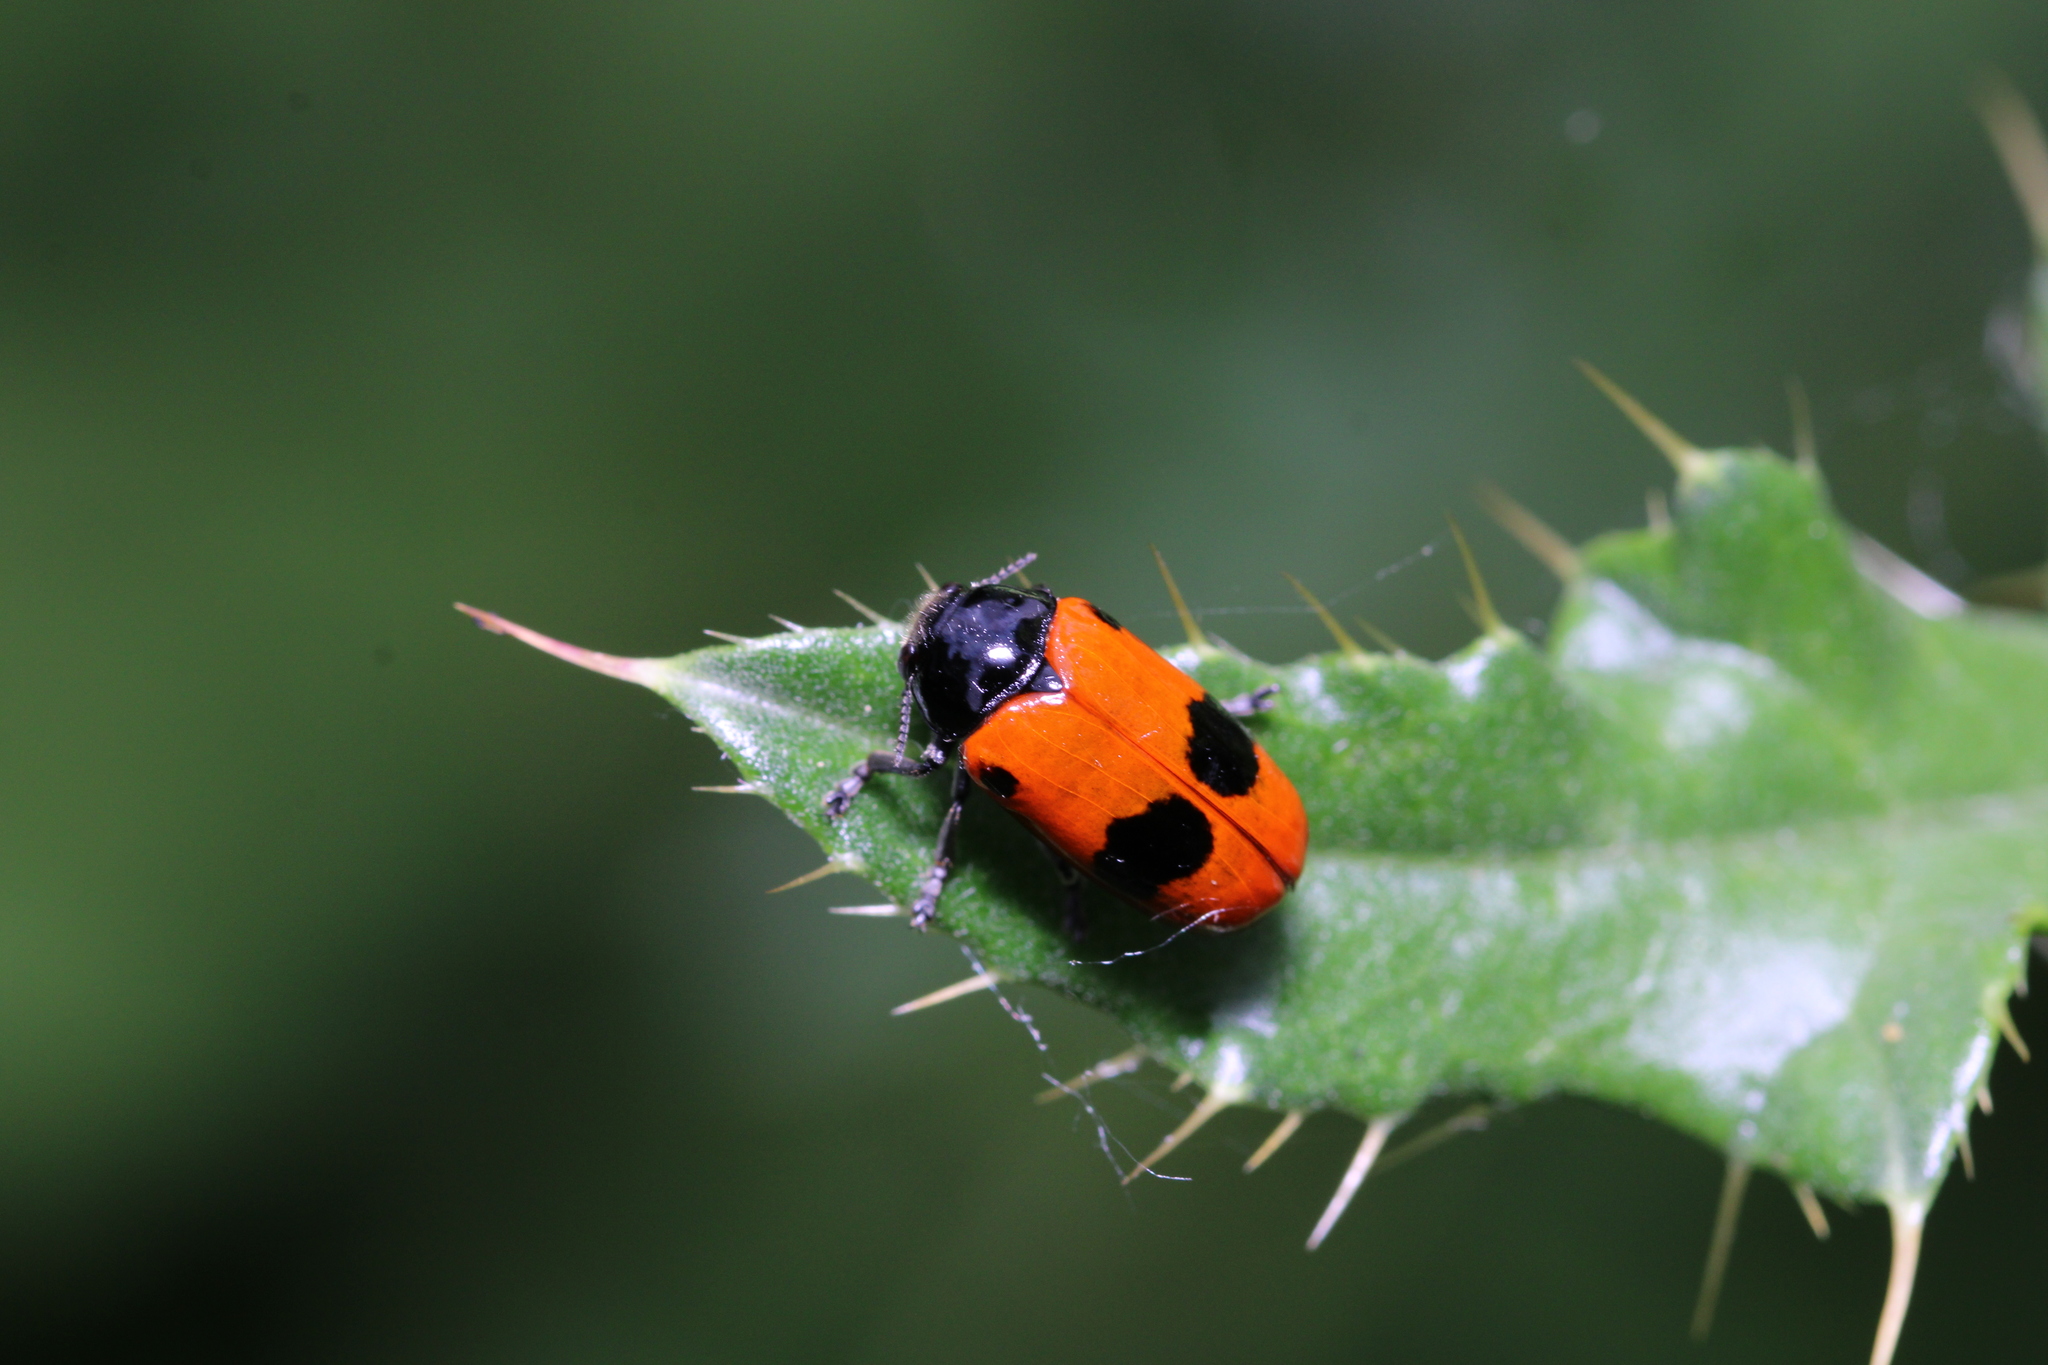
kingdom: Animalia
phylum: Arthropoda
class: Insecta
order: Coleoptera
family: Chrysomelidae
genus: Clytra
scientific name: Clytra laeviuscula
